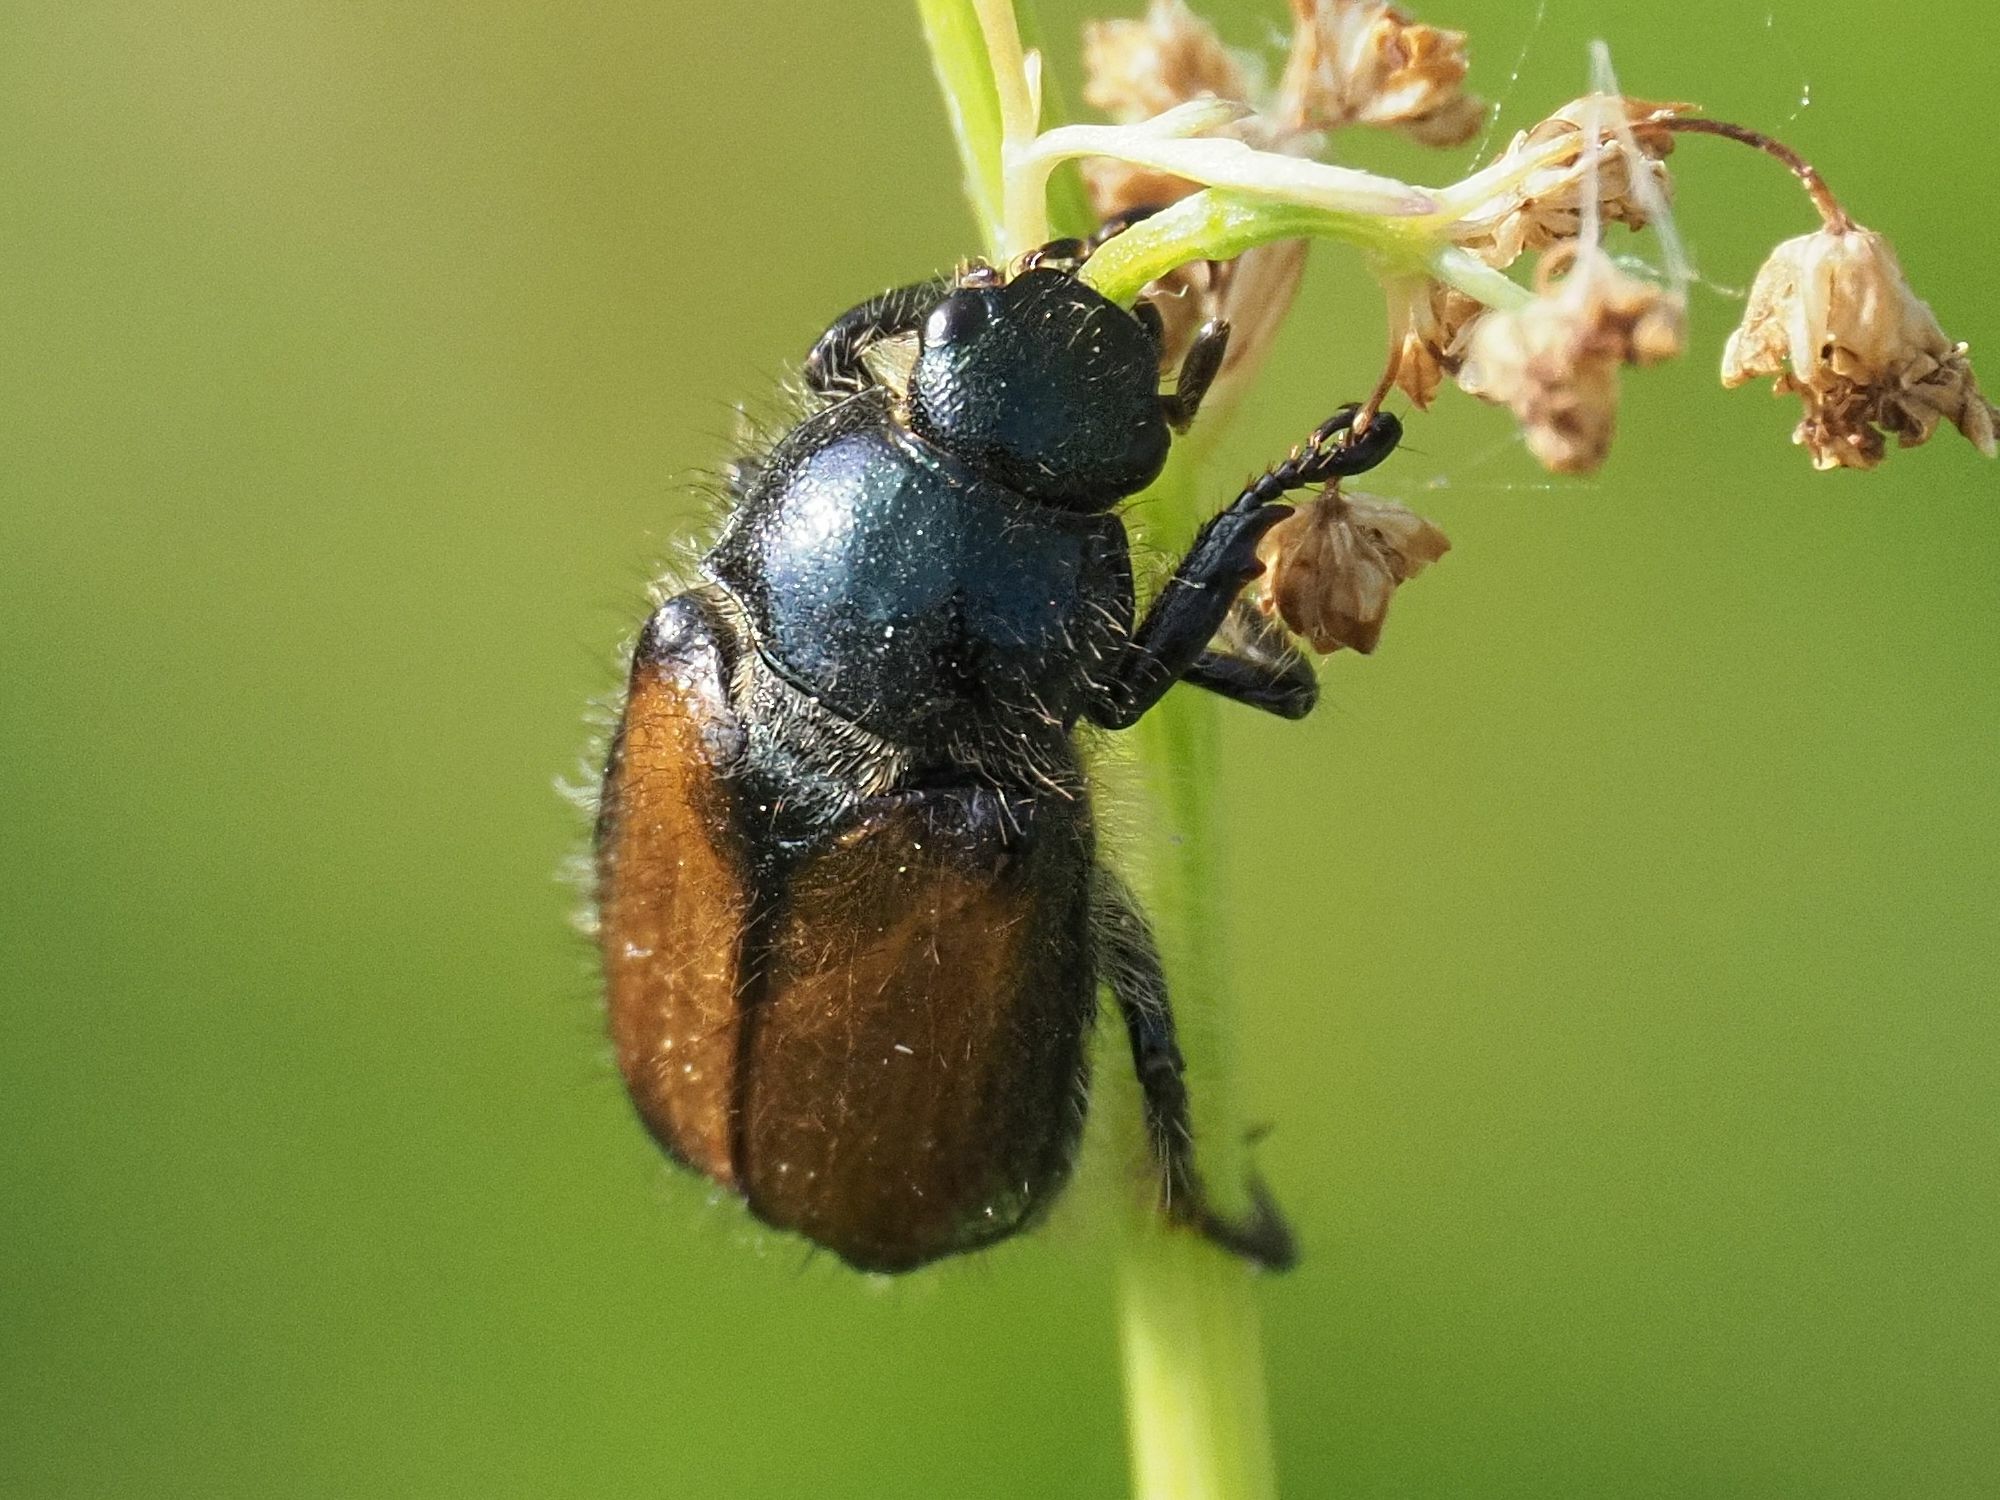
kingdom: Animalia
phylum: Arthropoda
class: Insecta
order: Coleoptera
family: Scarabaeidae
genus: Phyllopertha
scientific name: Phyllopertha horticola
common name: Garden chafer
